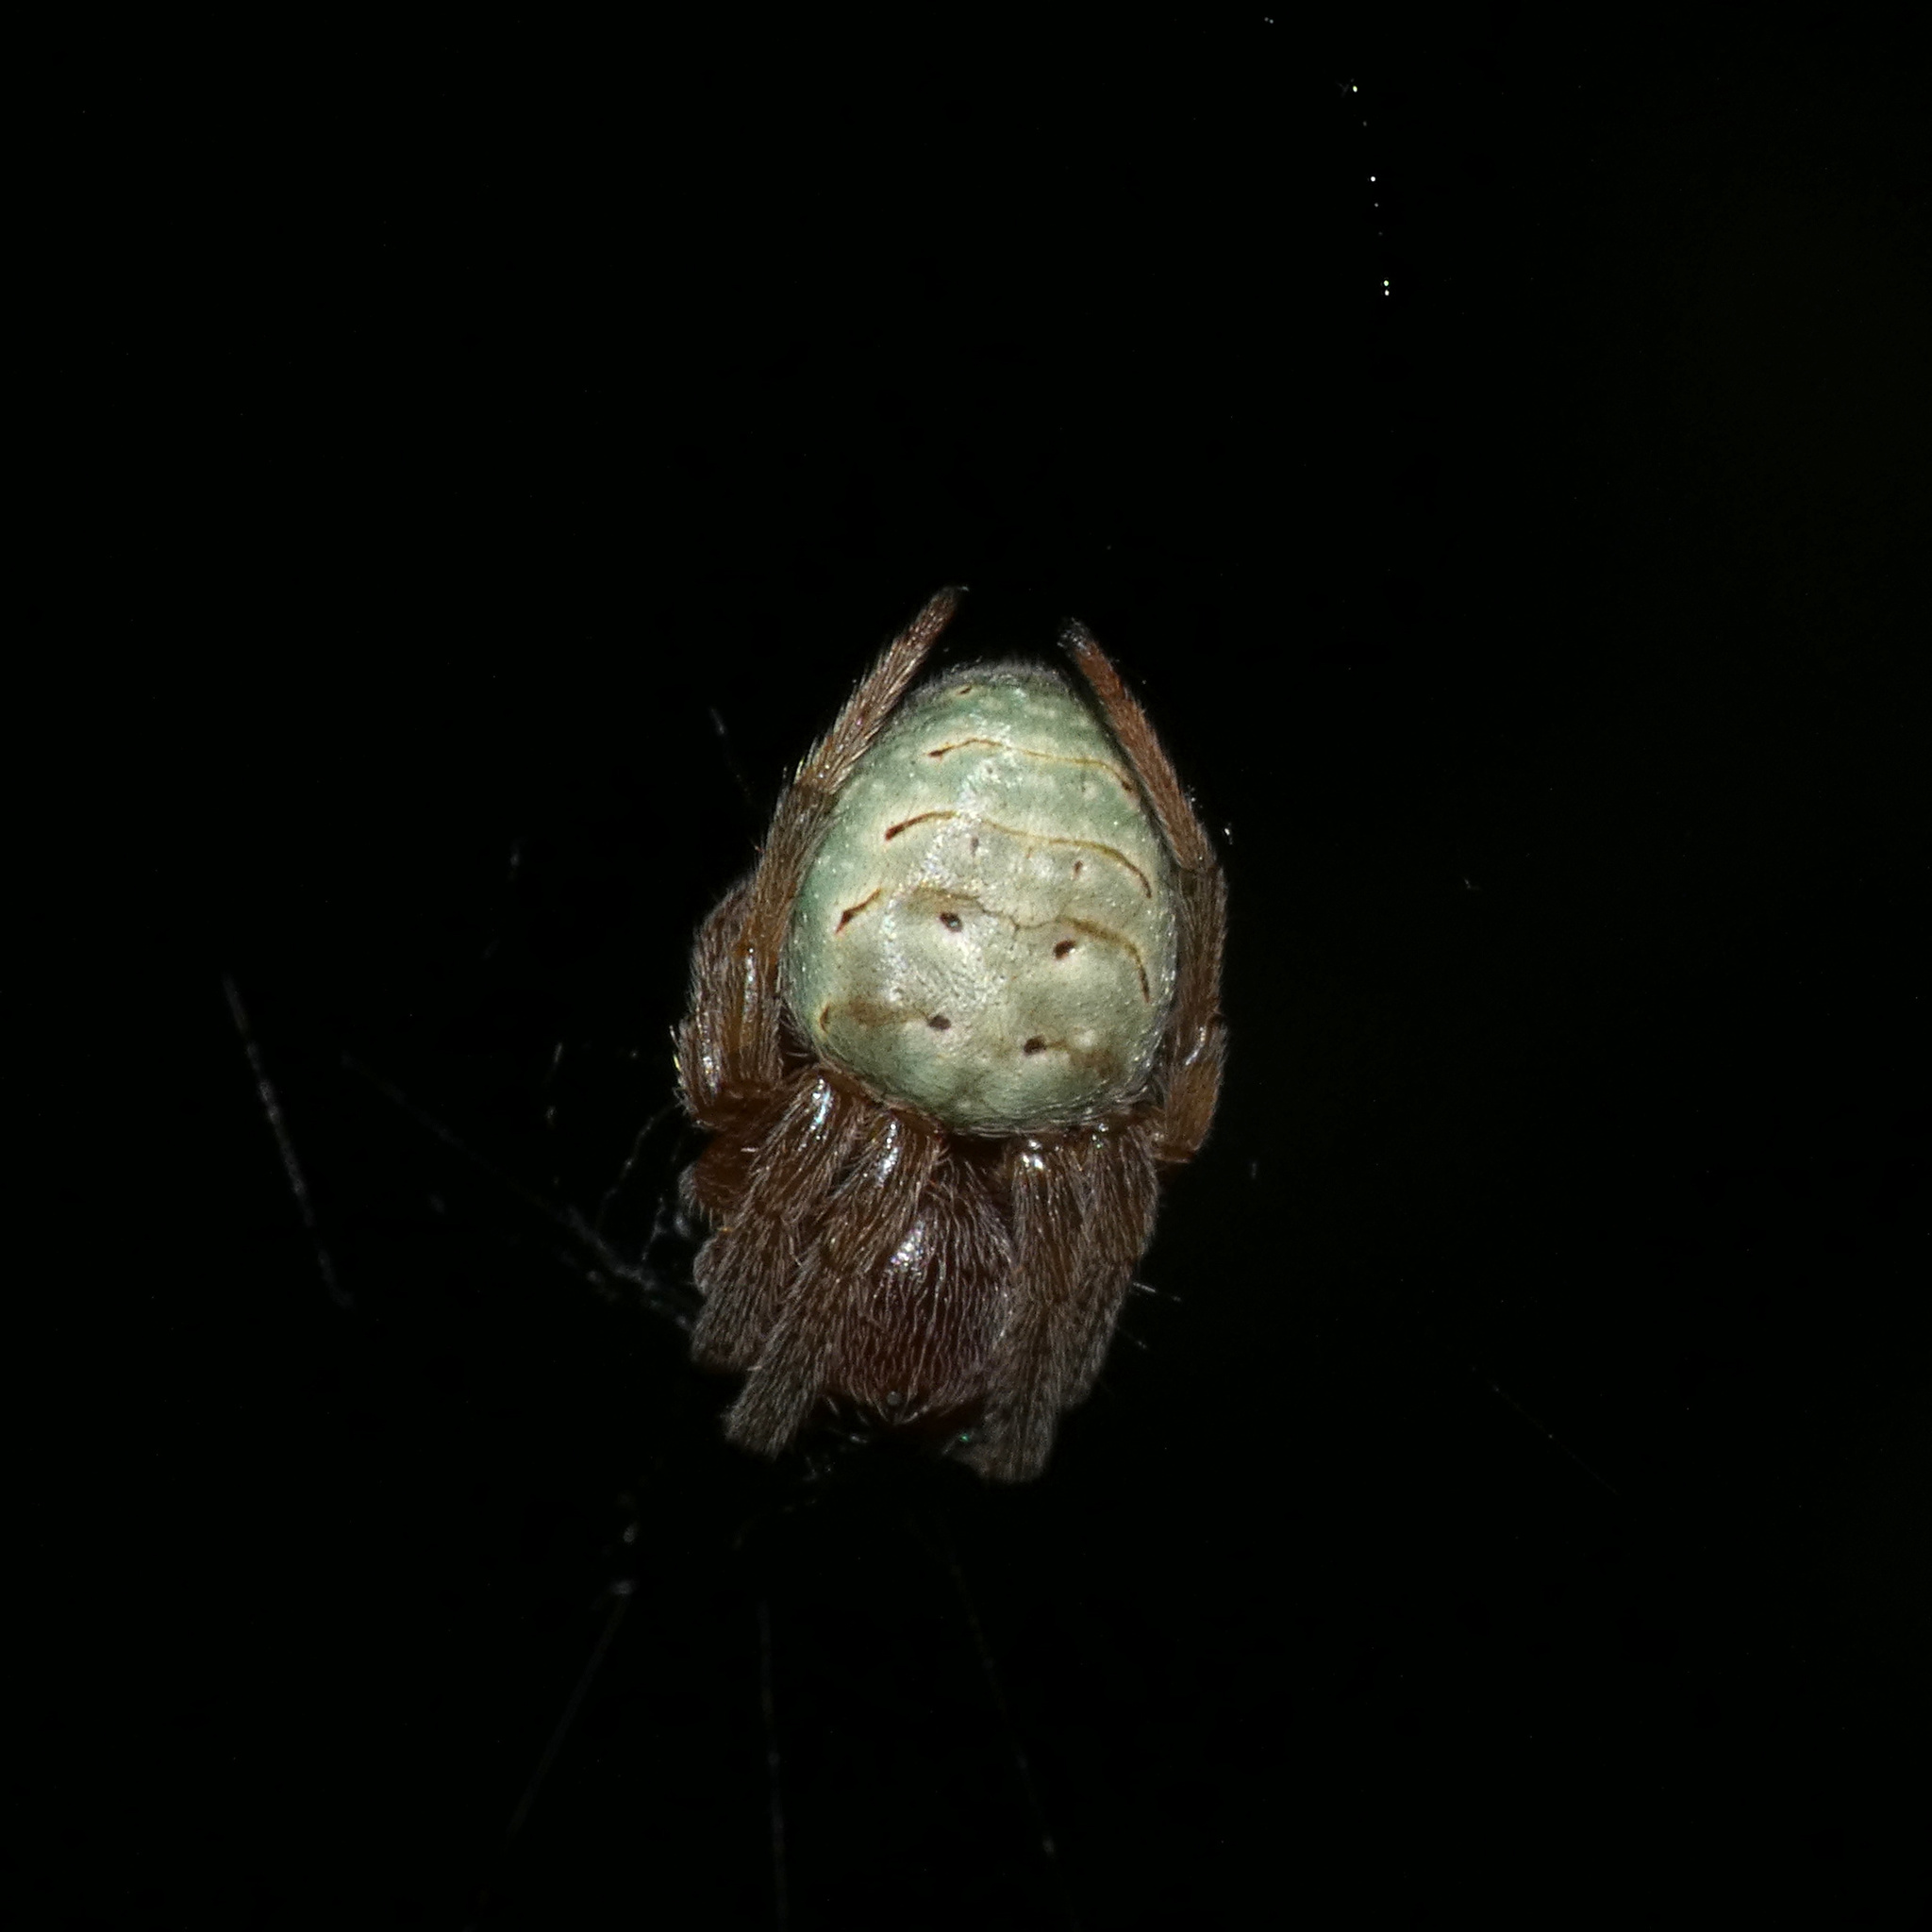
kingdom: Animalia
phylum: Arthropoda
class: Arachnida
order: Araneae
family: Araneidae
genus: Araneus
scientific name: Araneus apricus
